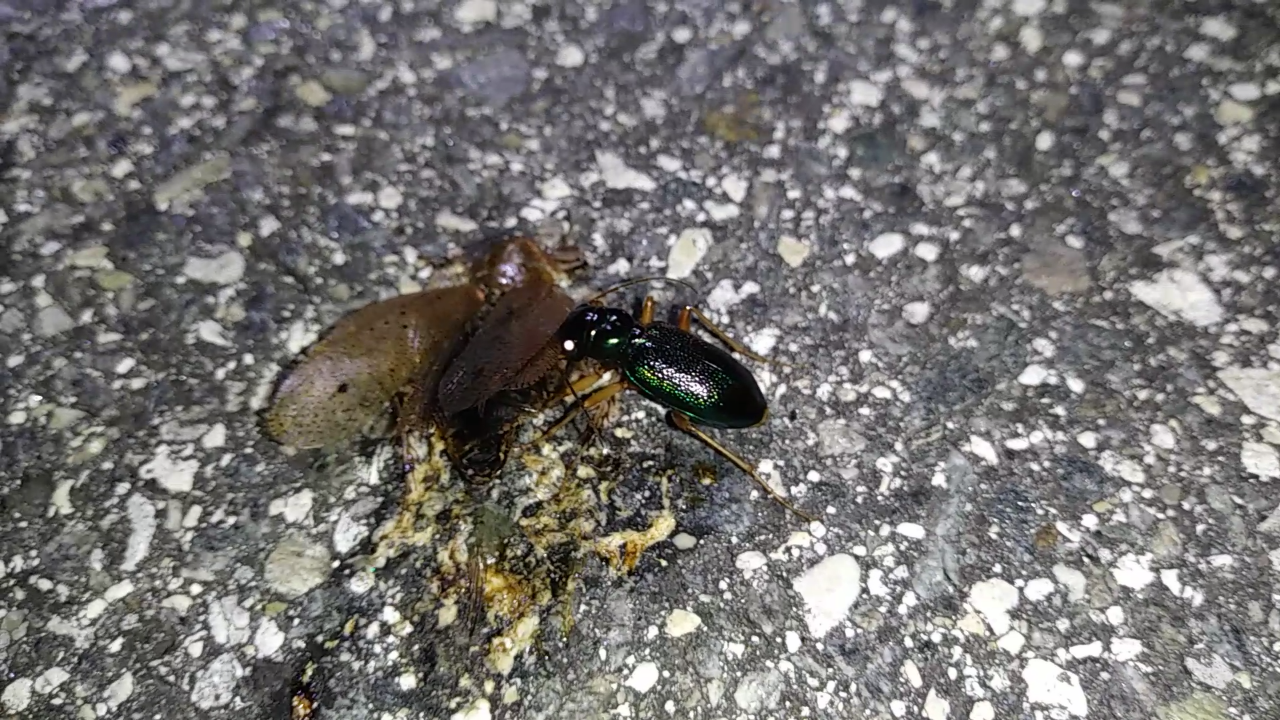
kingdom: Animalia
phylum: Arthropoda
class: Insecta
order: Coleoptera
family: Carabidae
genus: Tetracha
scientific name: Tetracha virginica
